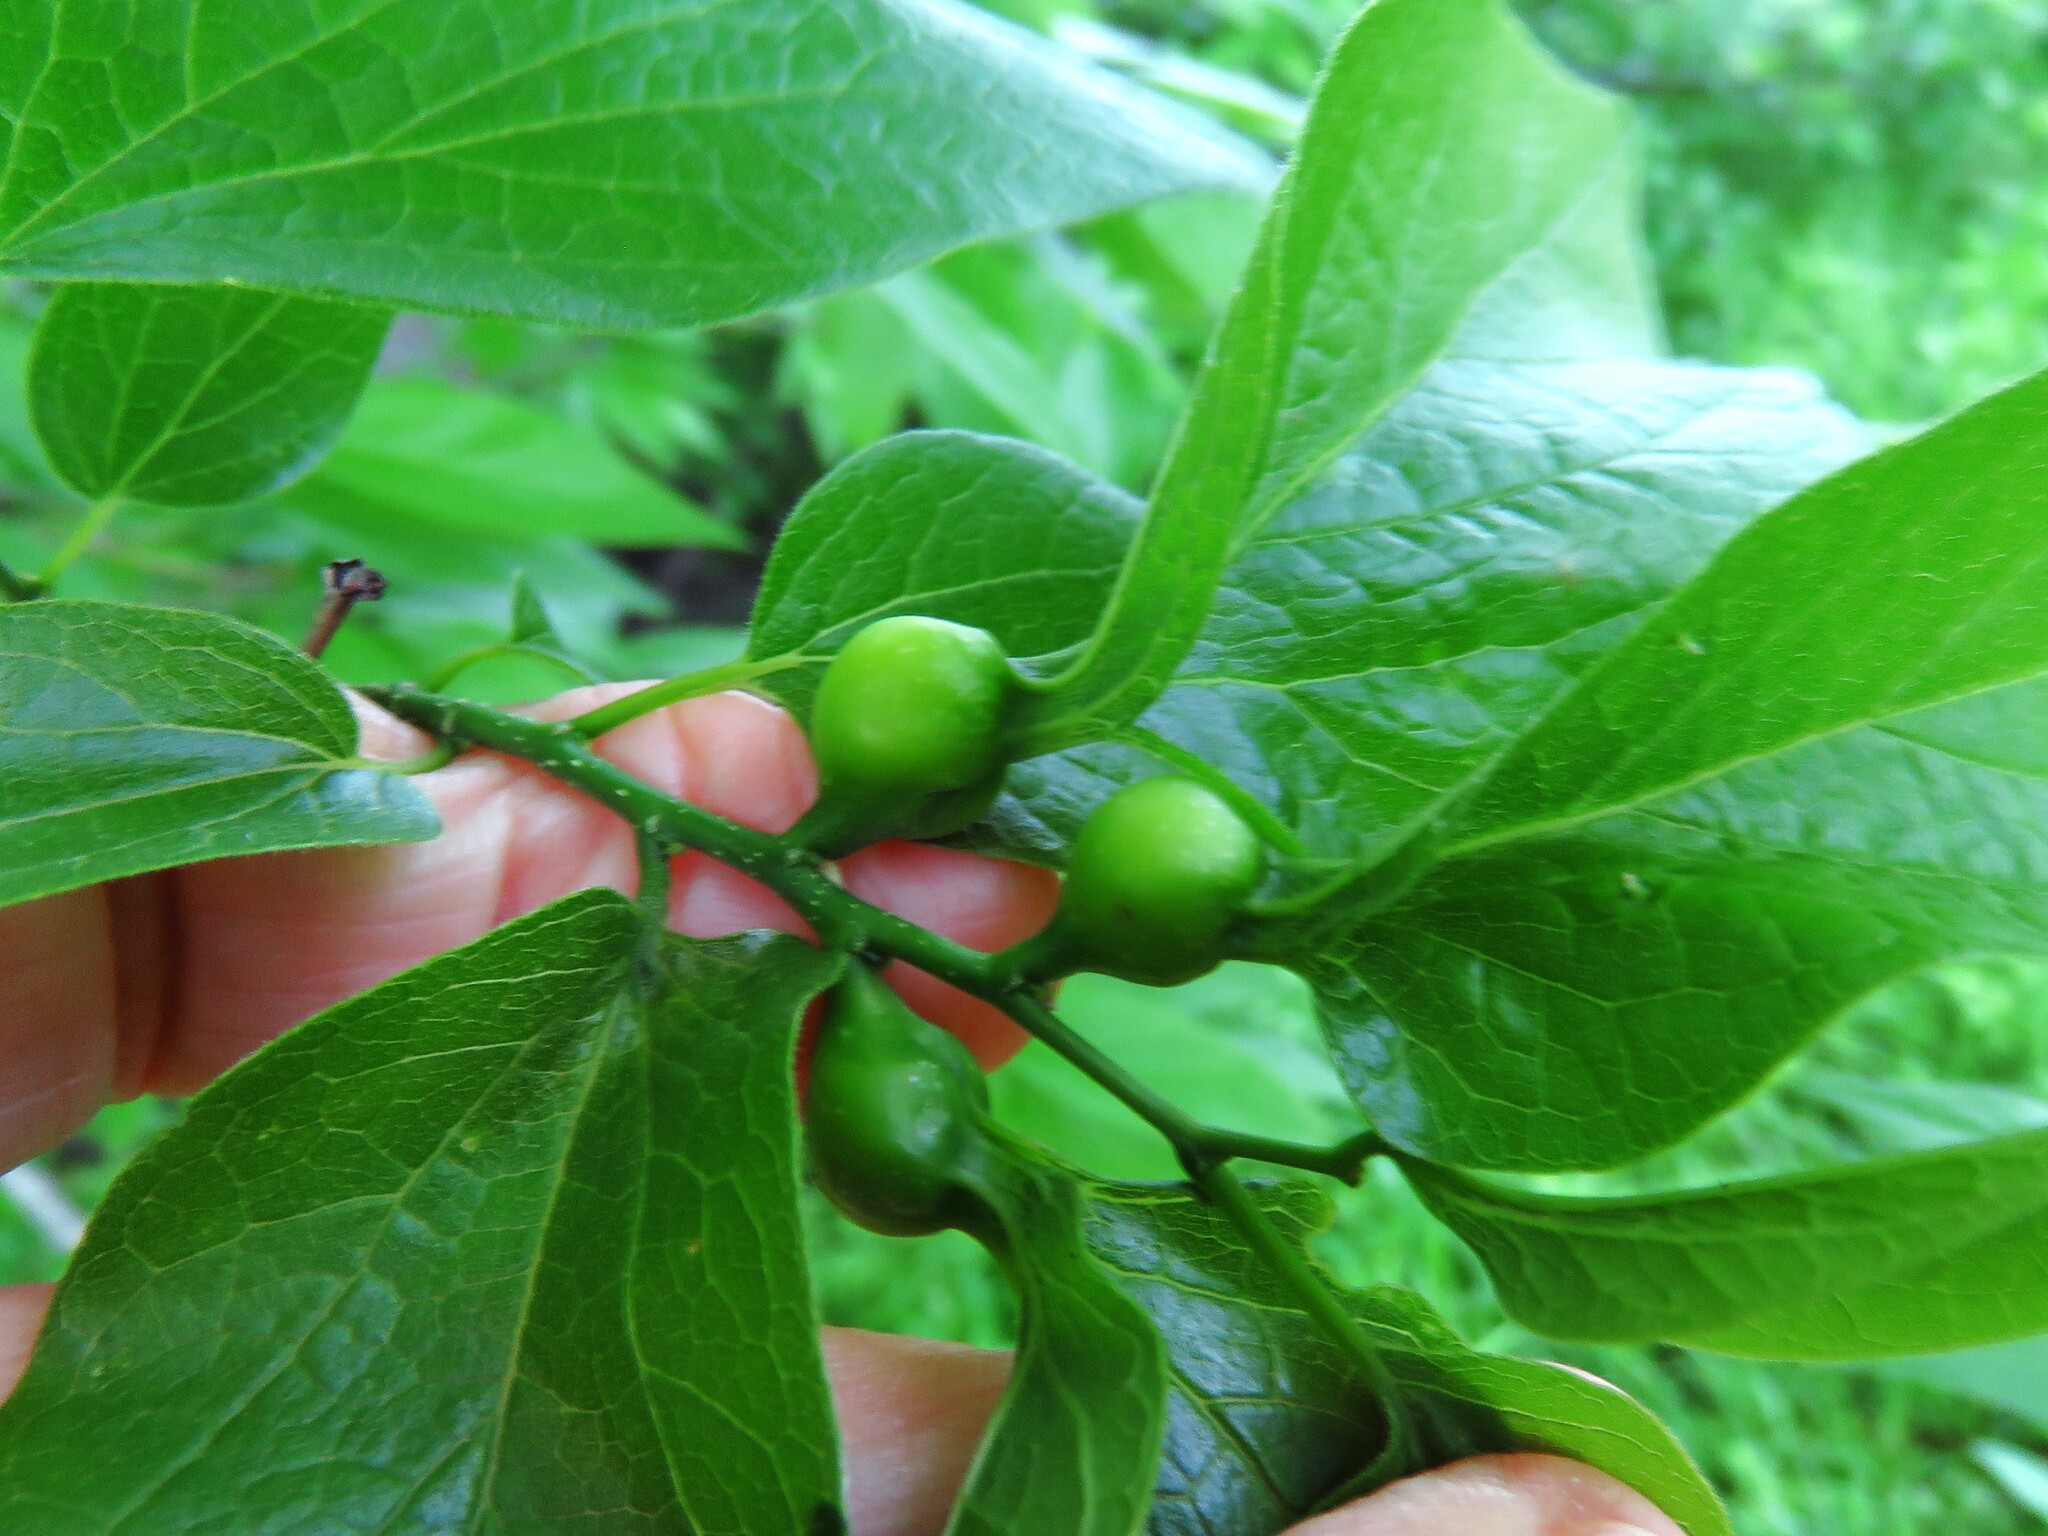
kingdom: Animalia
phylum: Arthropoda
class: Insecta
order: Hemiptera
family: Aphalaridae
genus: Pachypsylla
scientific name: Pachypsylla venusta
